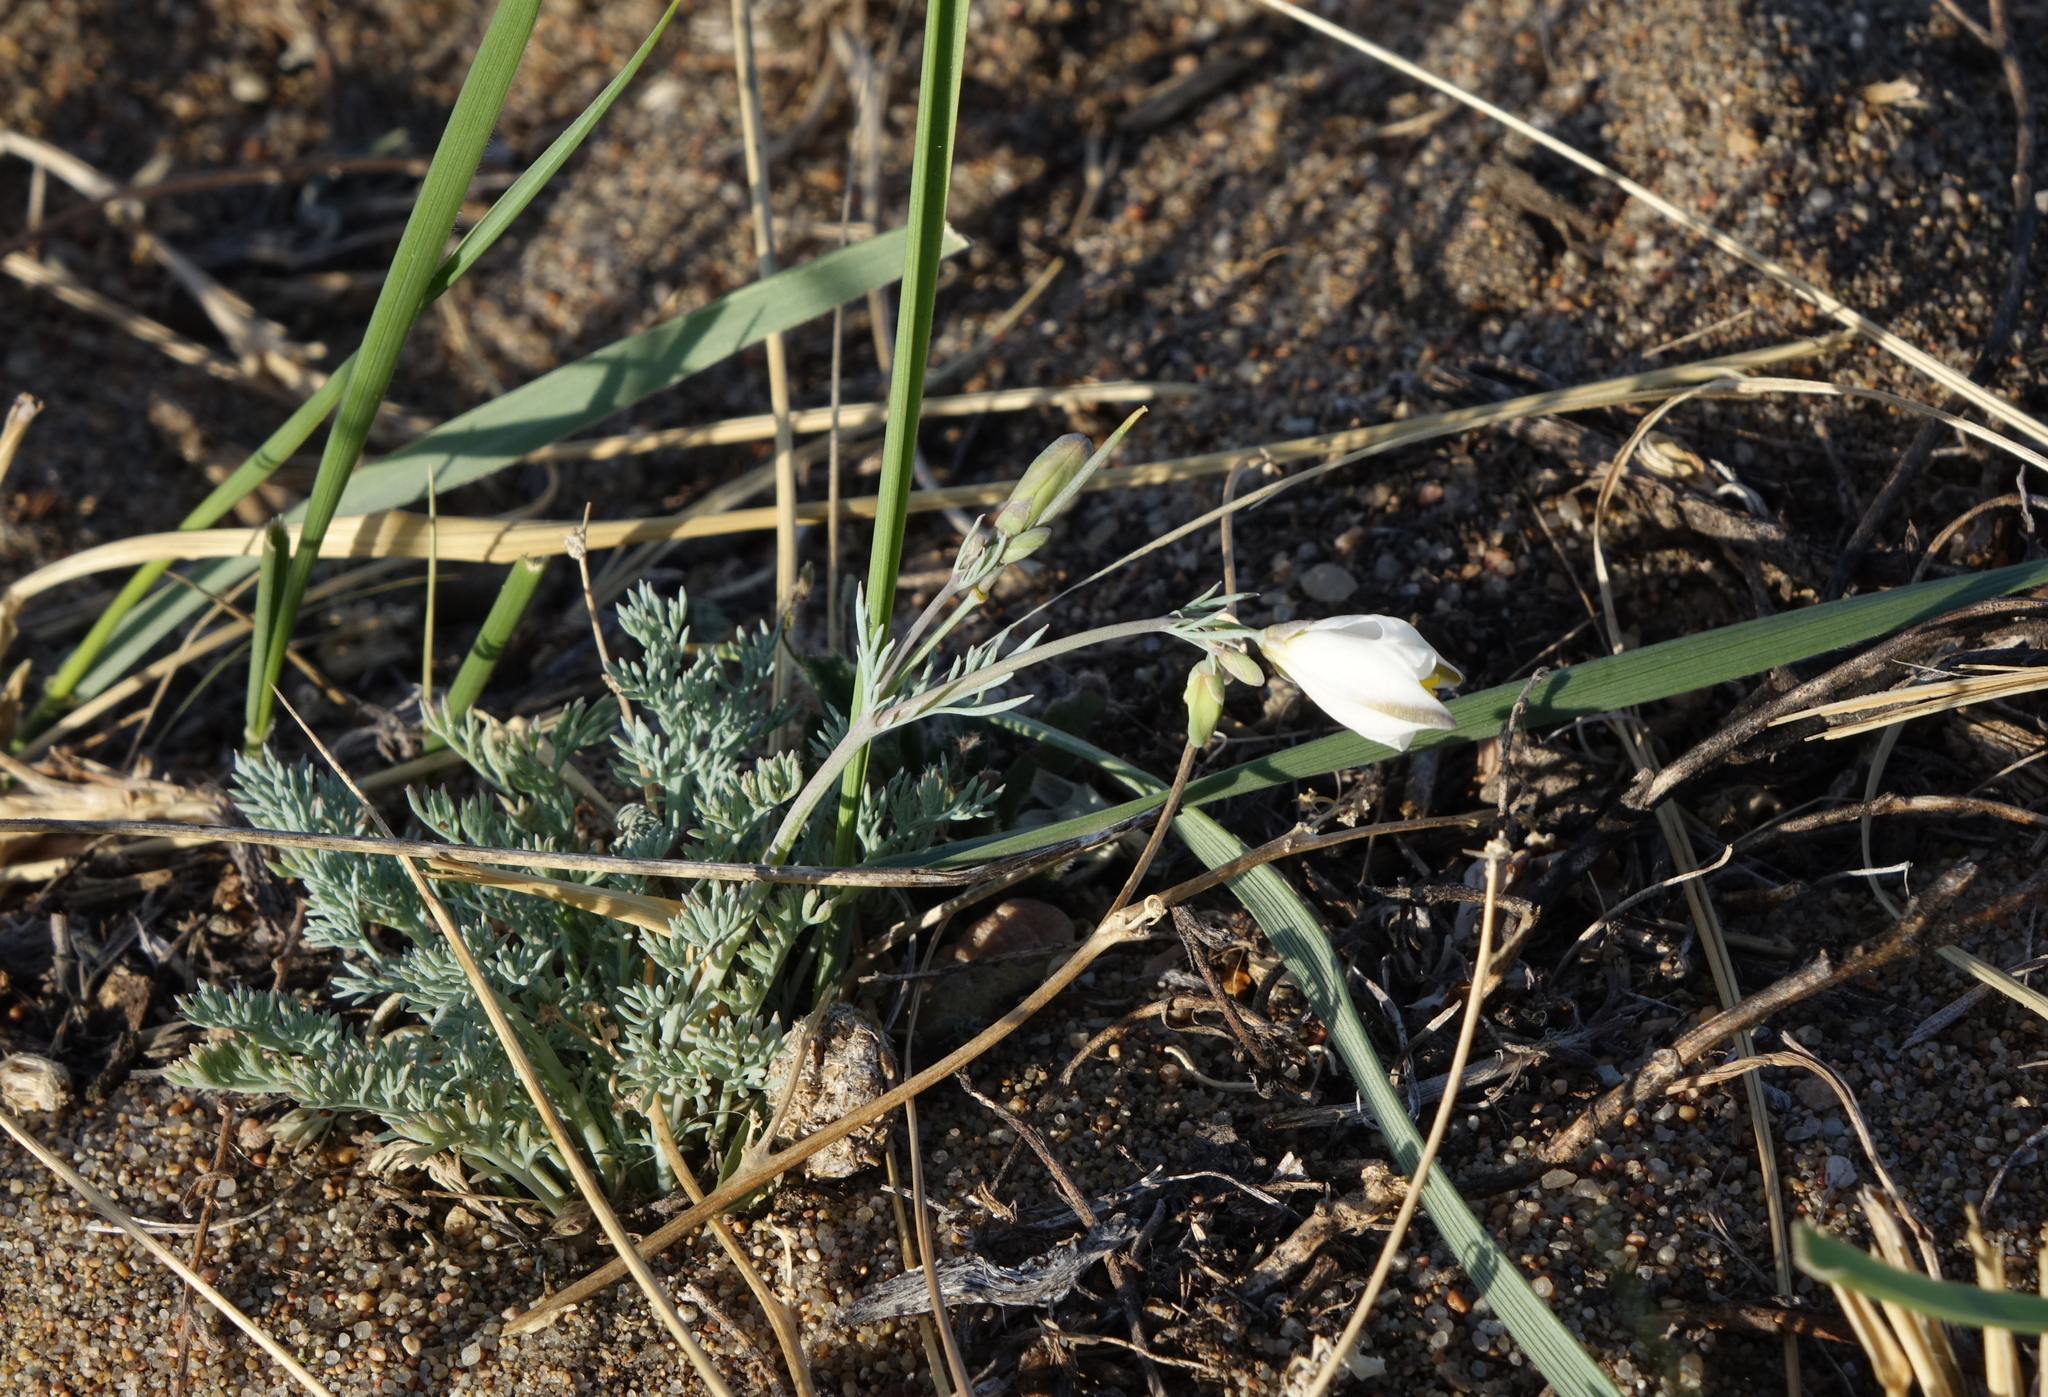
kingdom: Plantae
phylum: Tracheophyta
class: Magnoliopsida
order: Ranunculales
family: Papaveraceae
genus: Hypecoum
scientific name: Hypecoum lactiflorum
